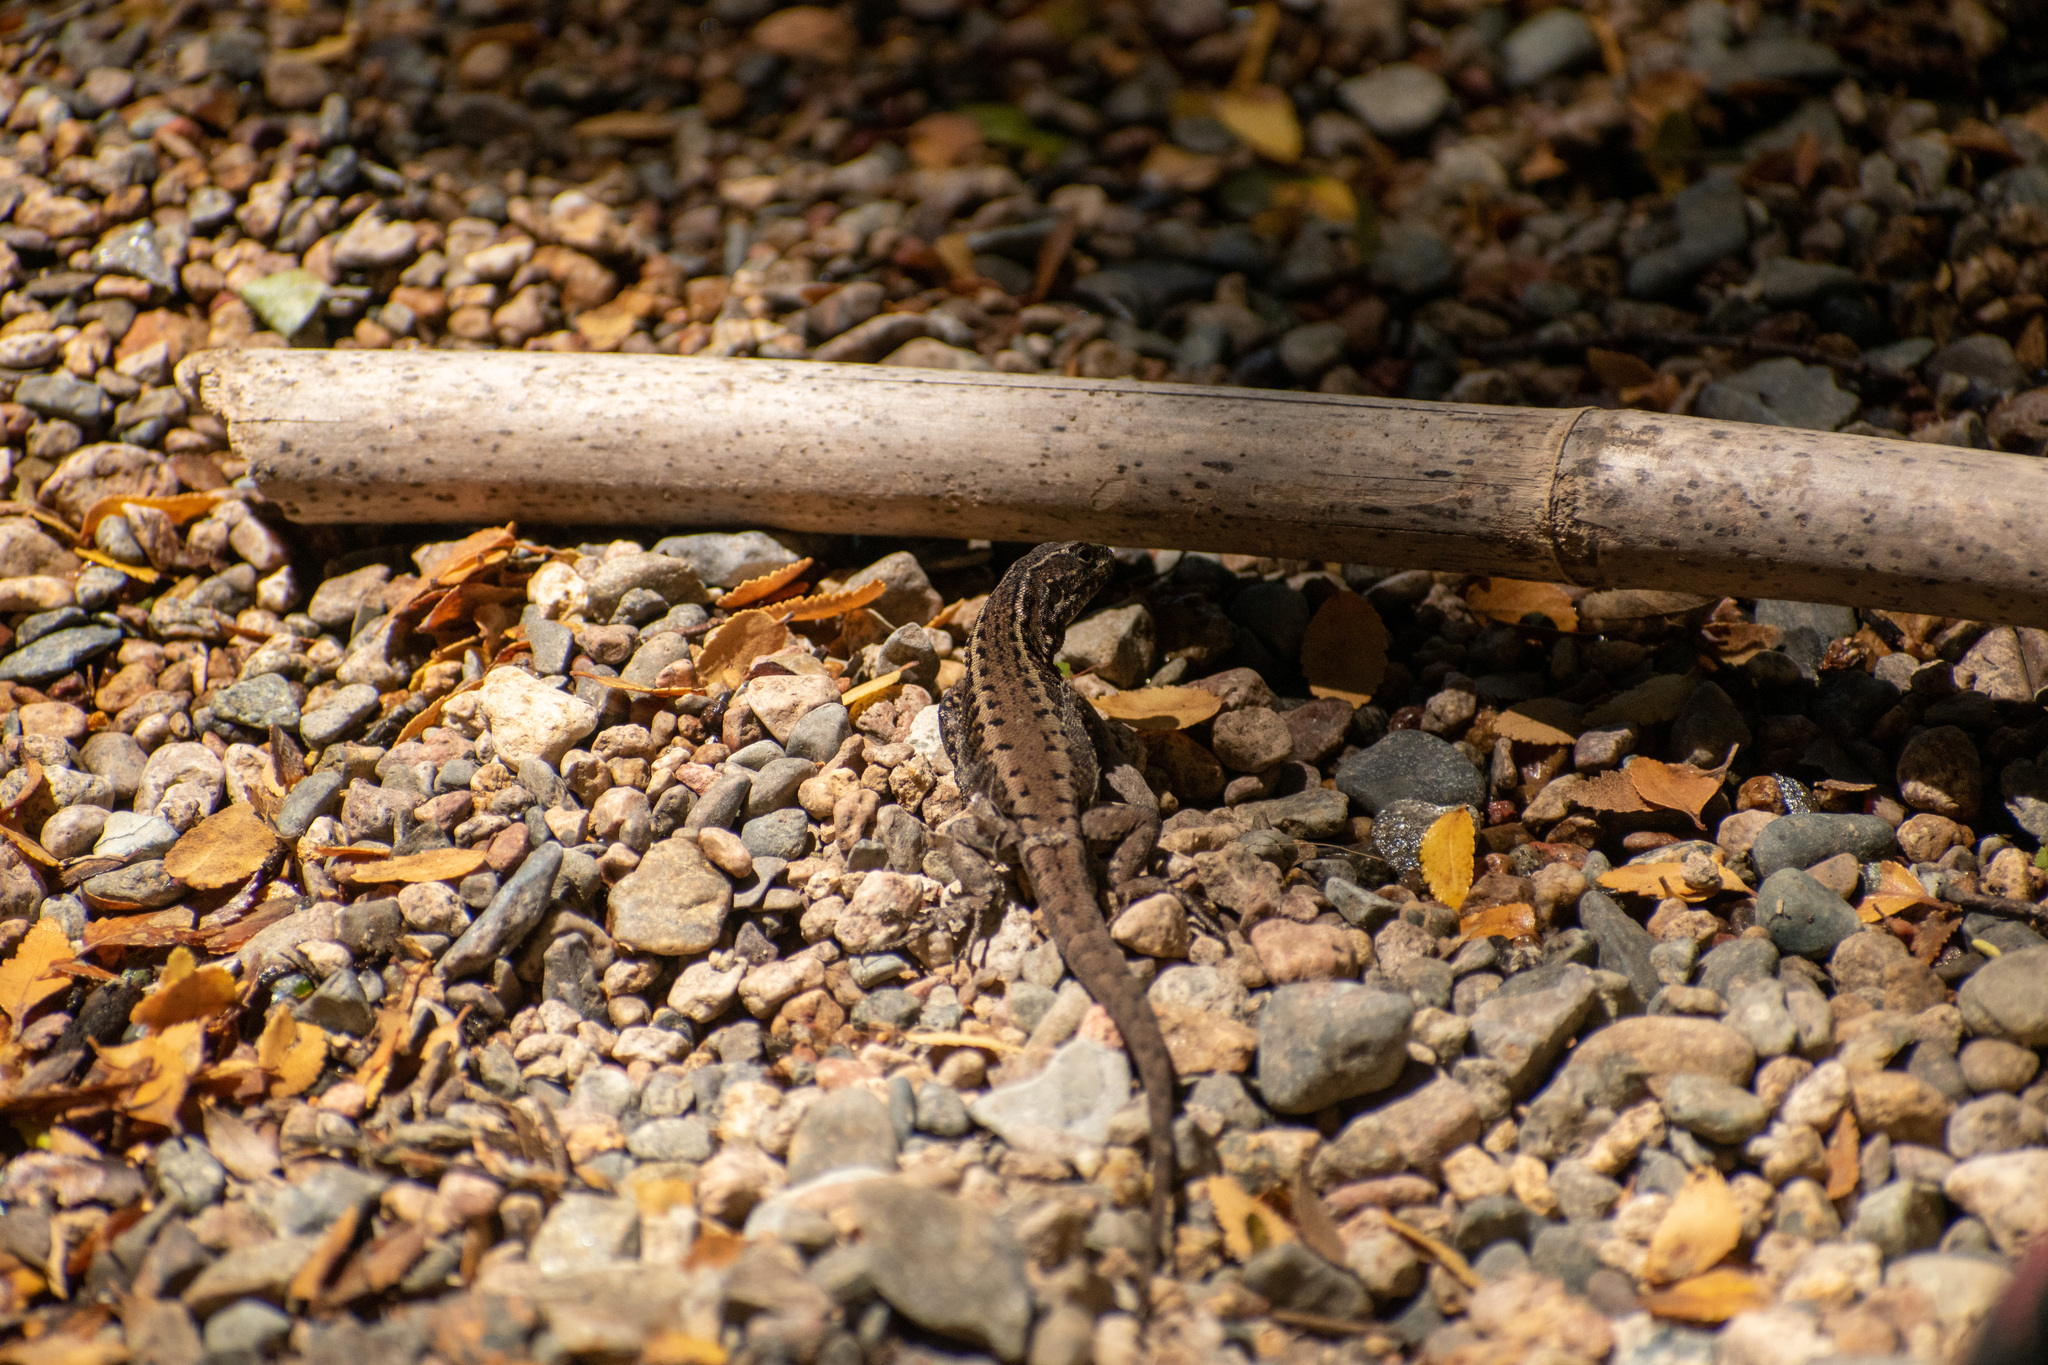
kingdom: Animalia
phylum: Chordata
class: Squamata
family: Liolaemidae
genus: Liolaemus
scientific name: Liolaemus pictus
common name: Painted tree iguana
